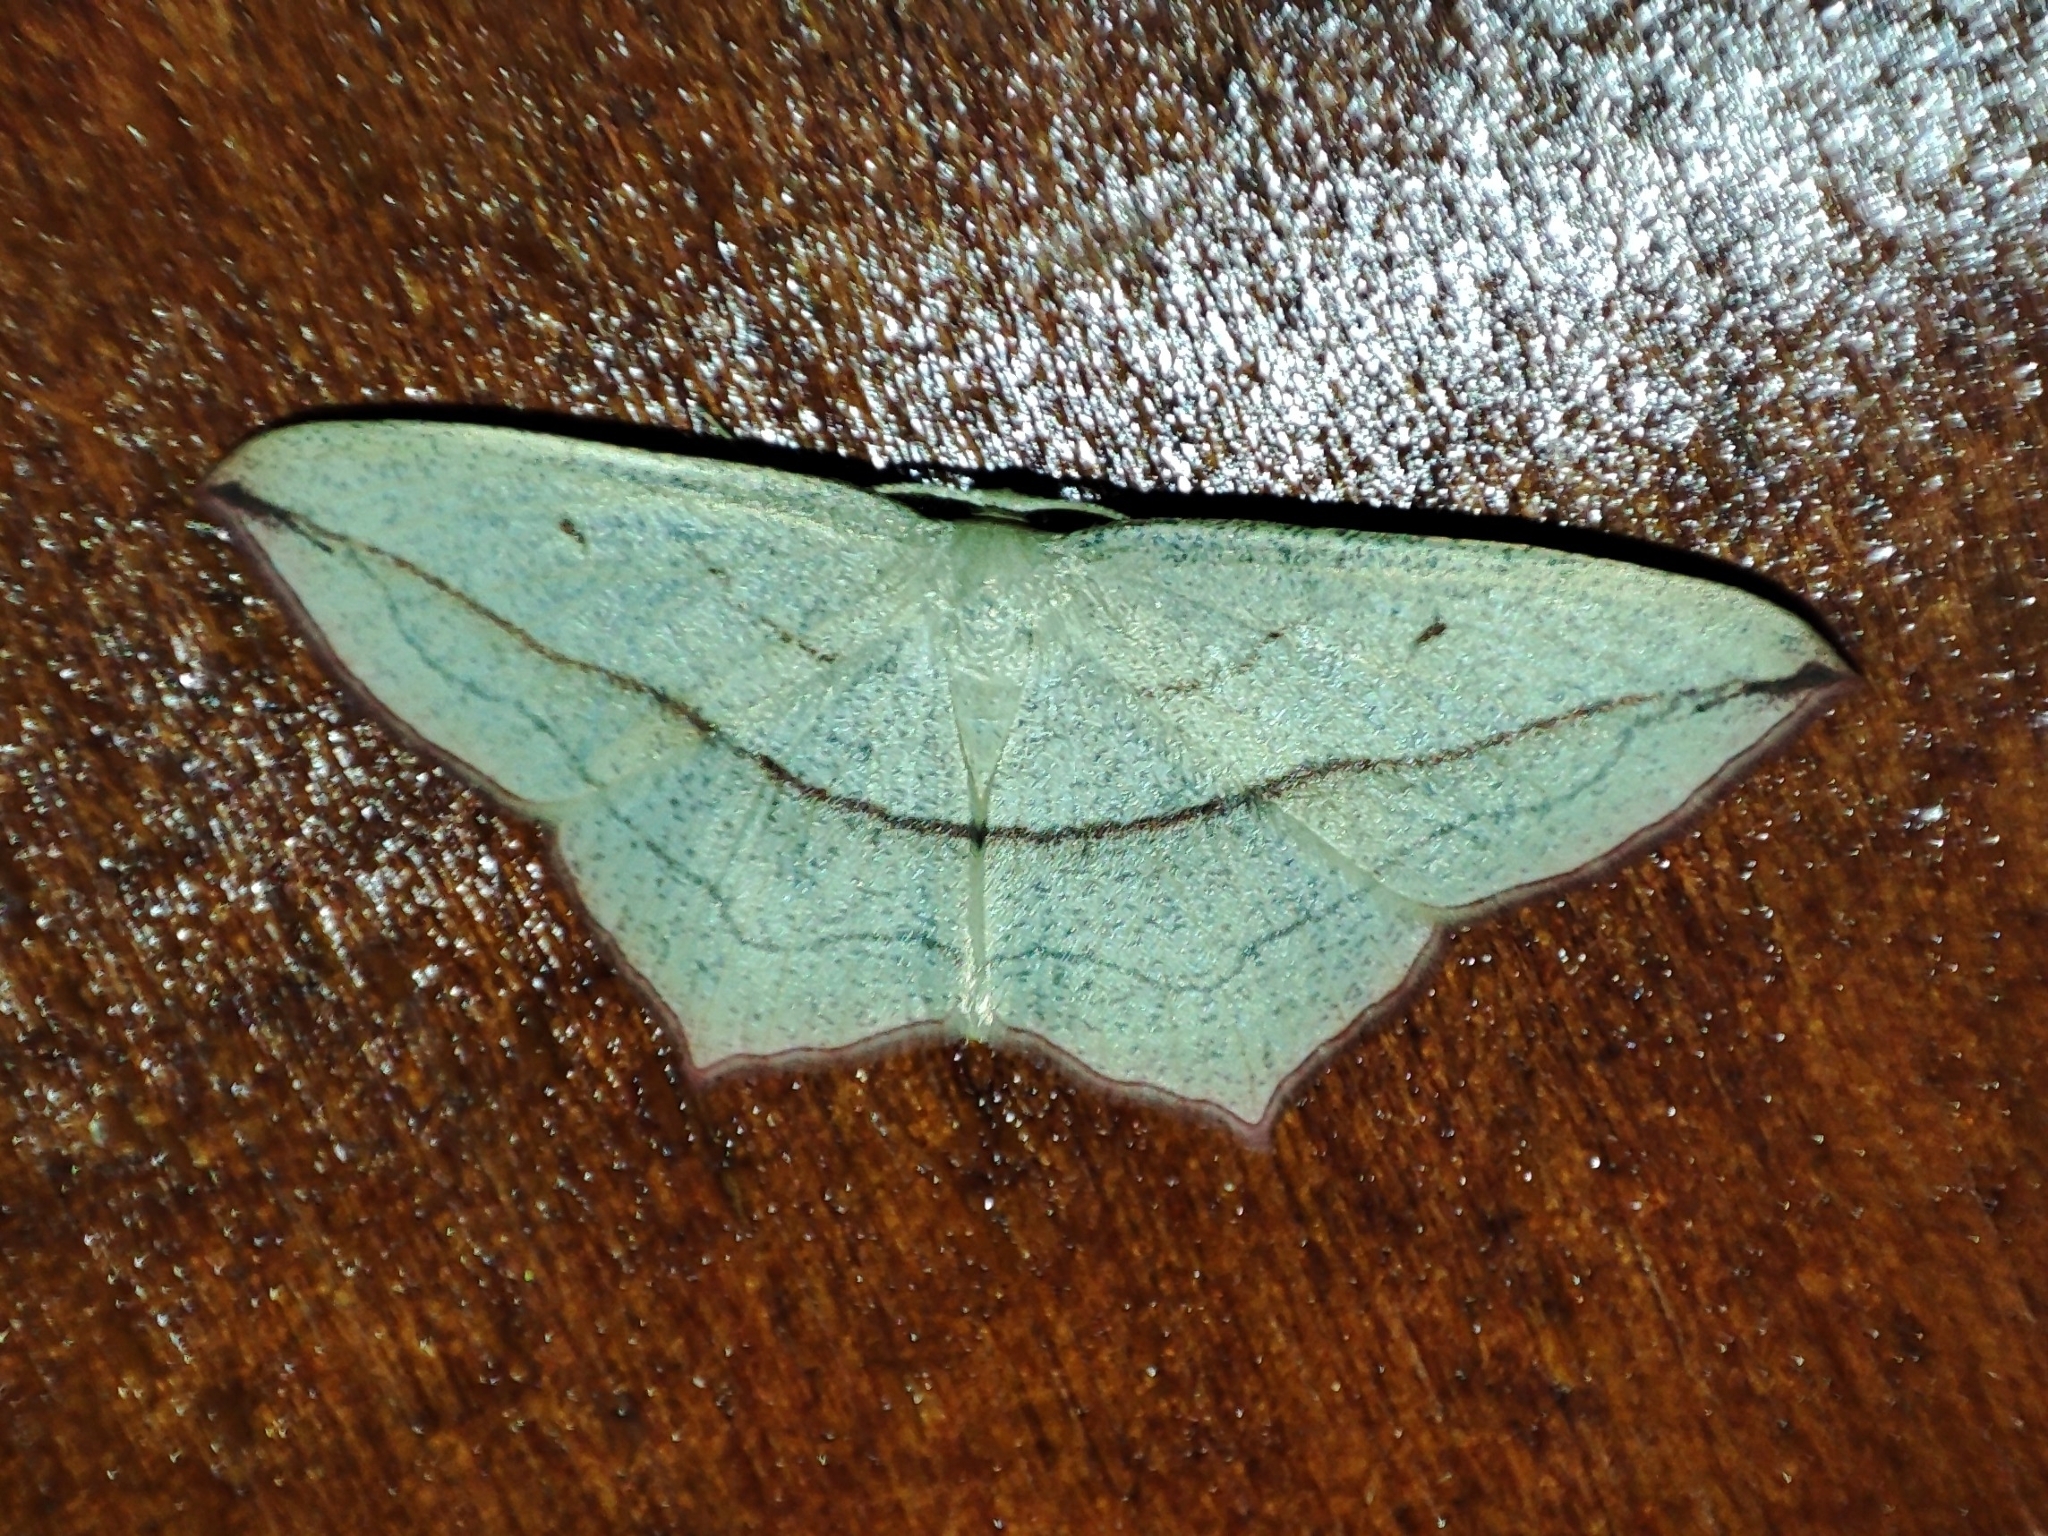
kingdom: Animalia
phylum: Arthropoda
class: Insecta
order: Lepidoptera
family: Geometridae
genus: Timandra
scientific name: Timandra comae
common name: Blood-vein
